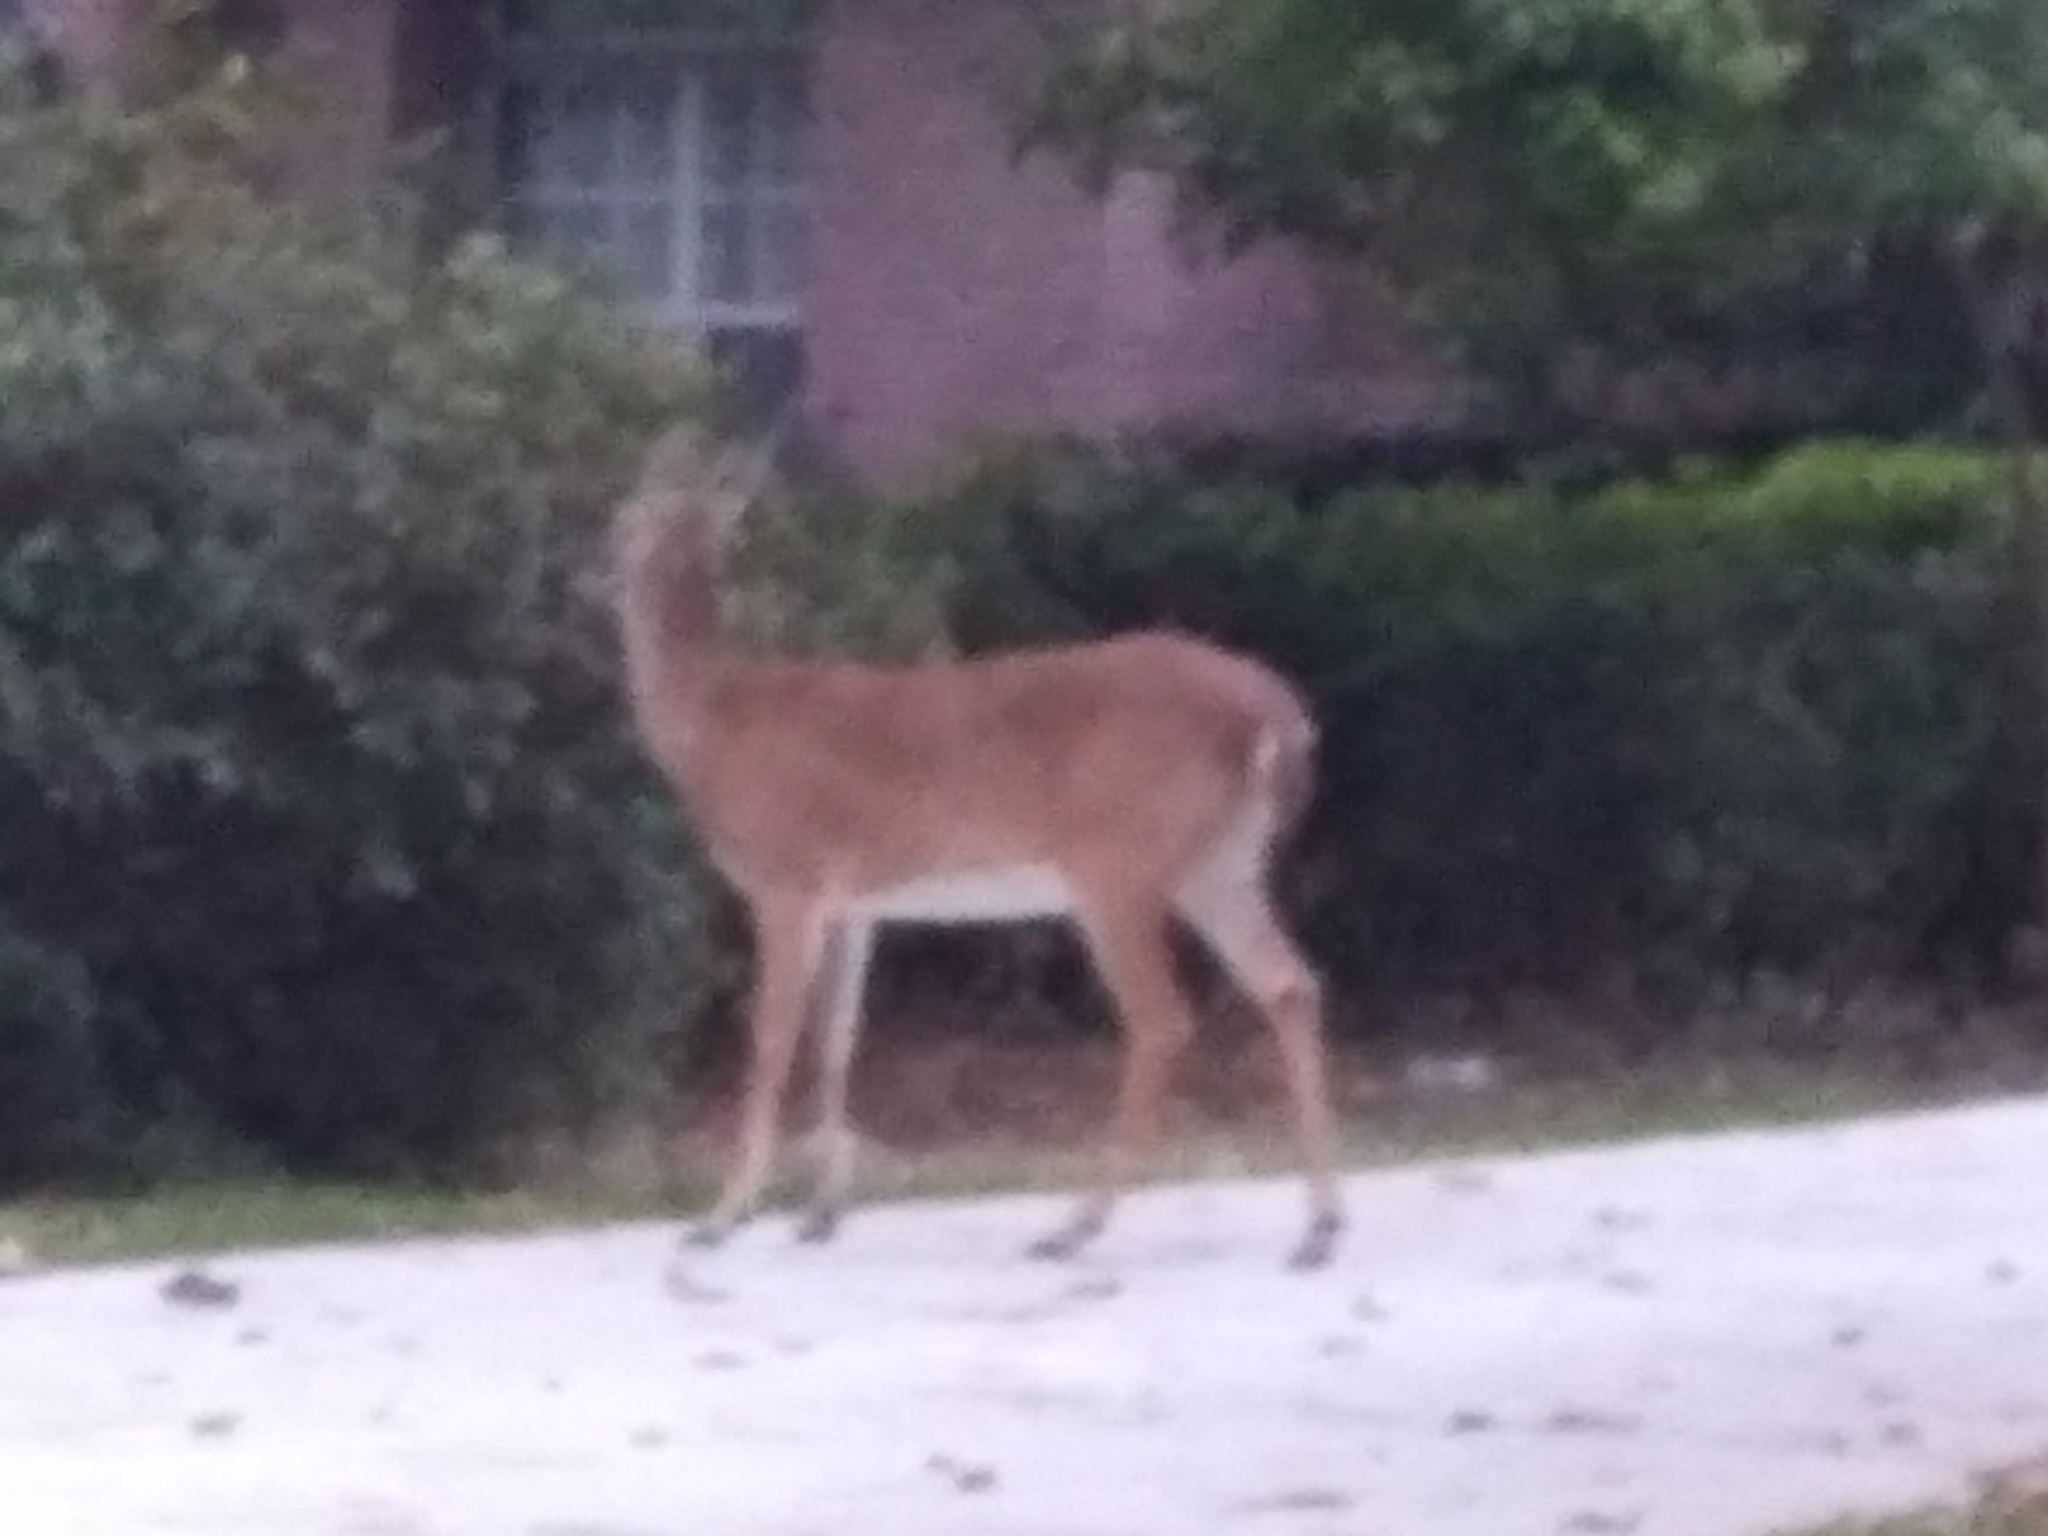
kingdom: Animalia
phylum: Chordata
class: Mammalia
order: Artiodactyla
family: Cervidae
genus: Odocoileus
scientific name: Odocoileus virginianus
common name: White-tailed deer
